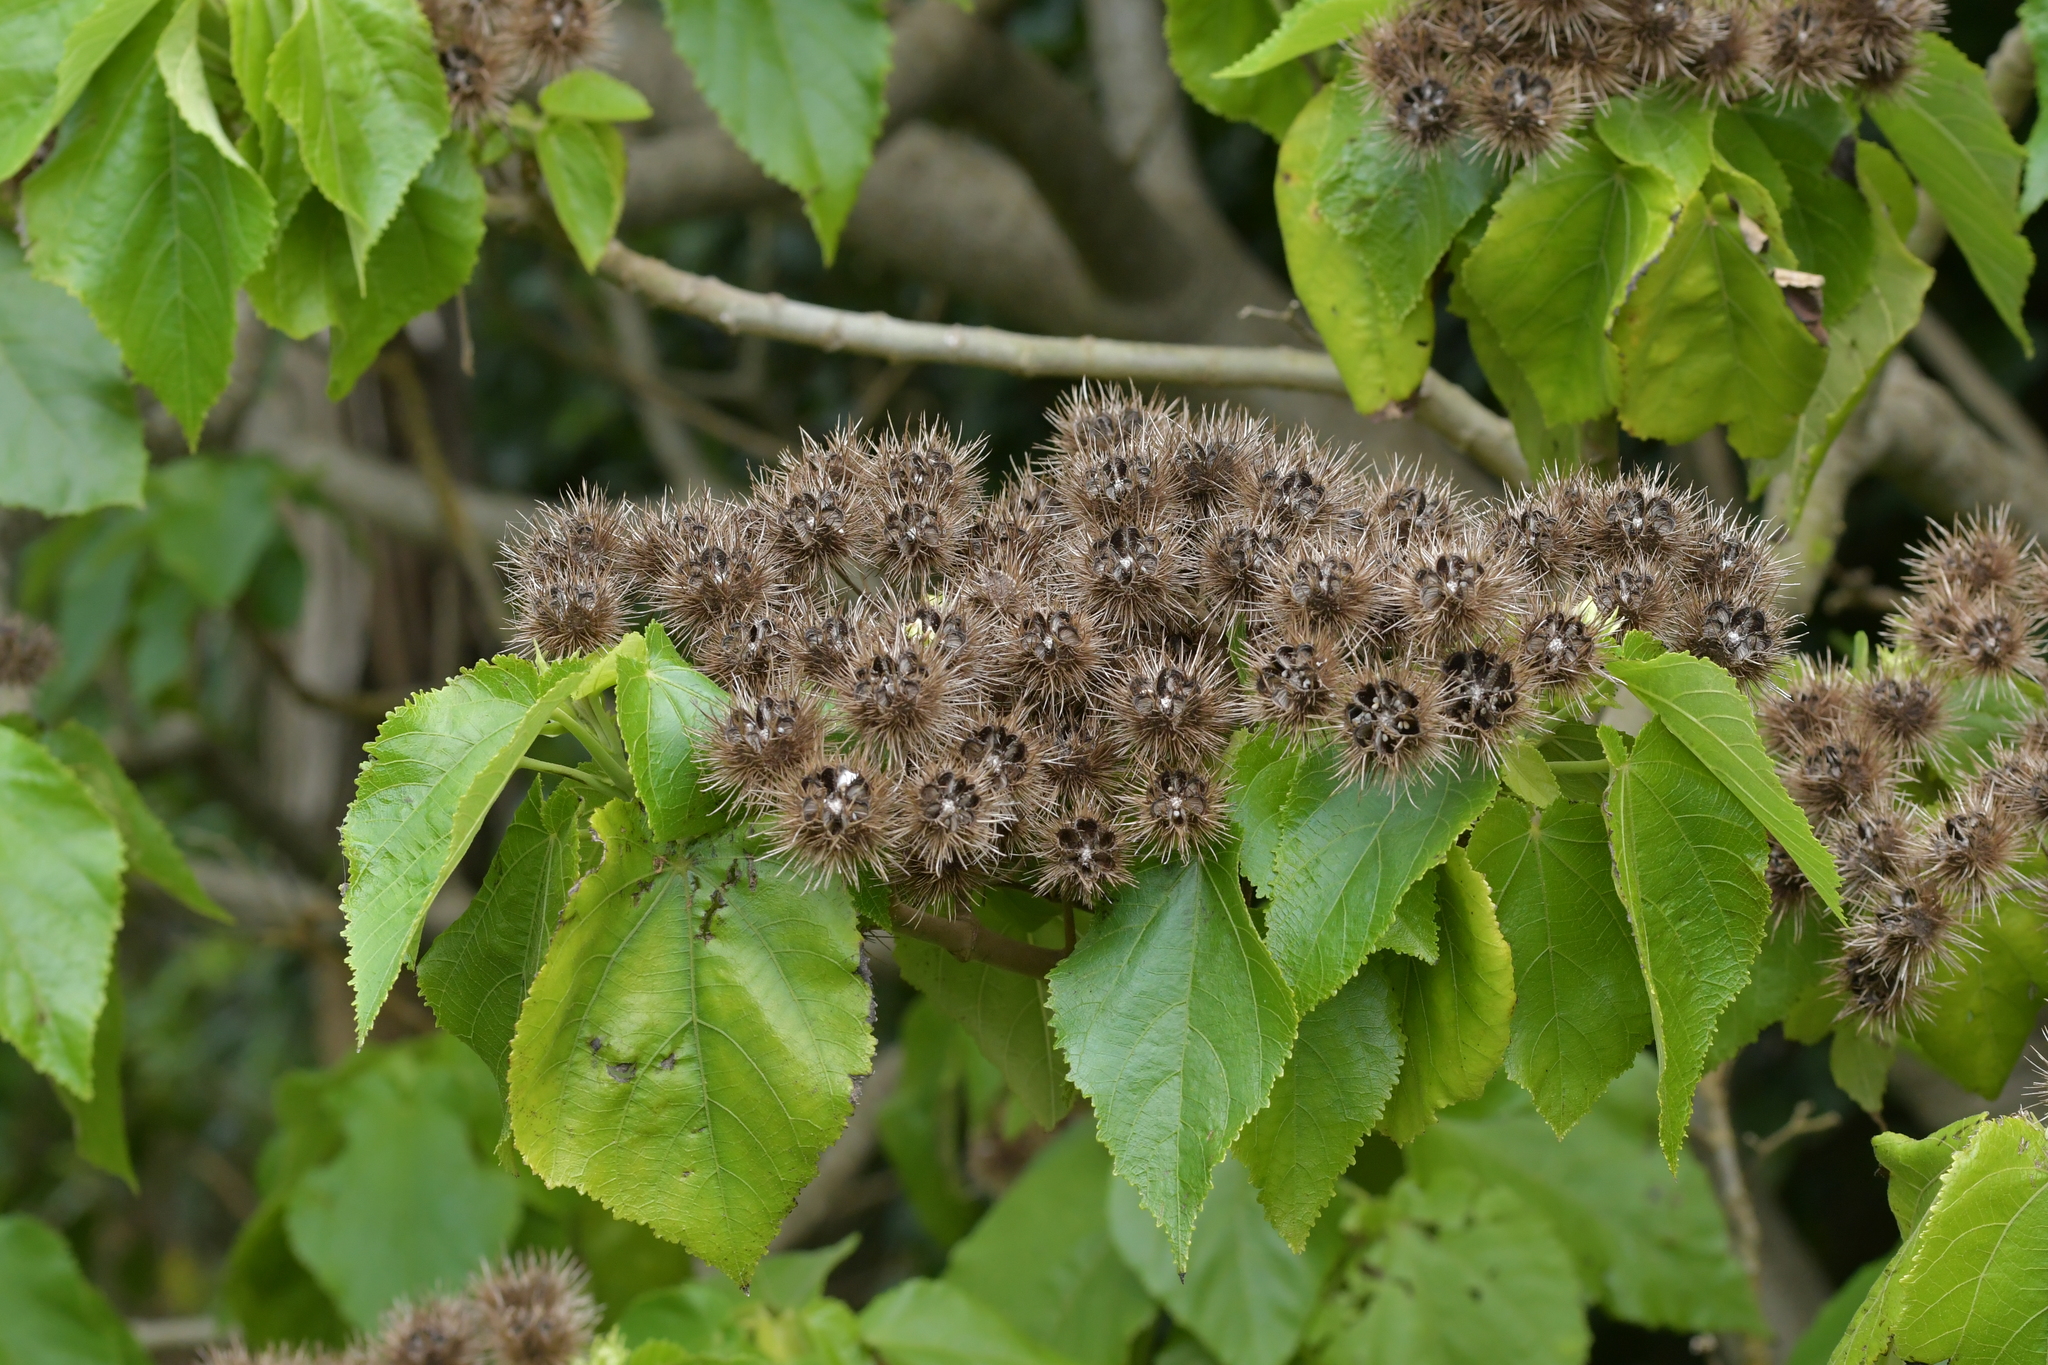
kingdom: Plantae
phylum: Tracheophyta
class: Magnoliopsida
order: Malvales
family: Malvaceae
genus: Entelea
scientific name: Entelea arborescens
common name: New zealand-mulberry
